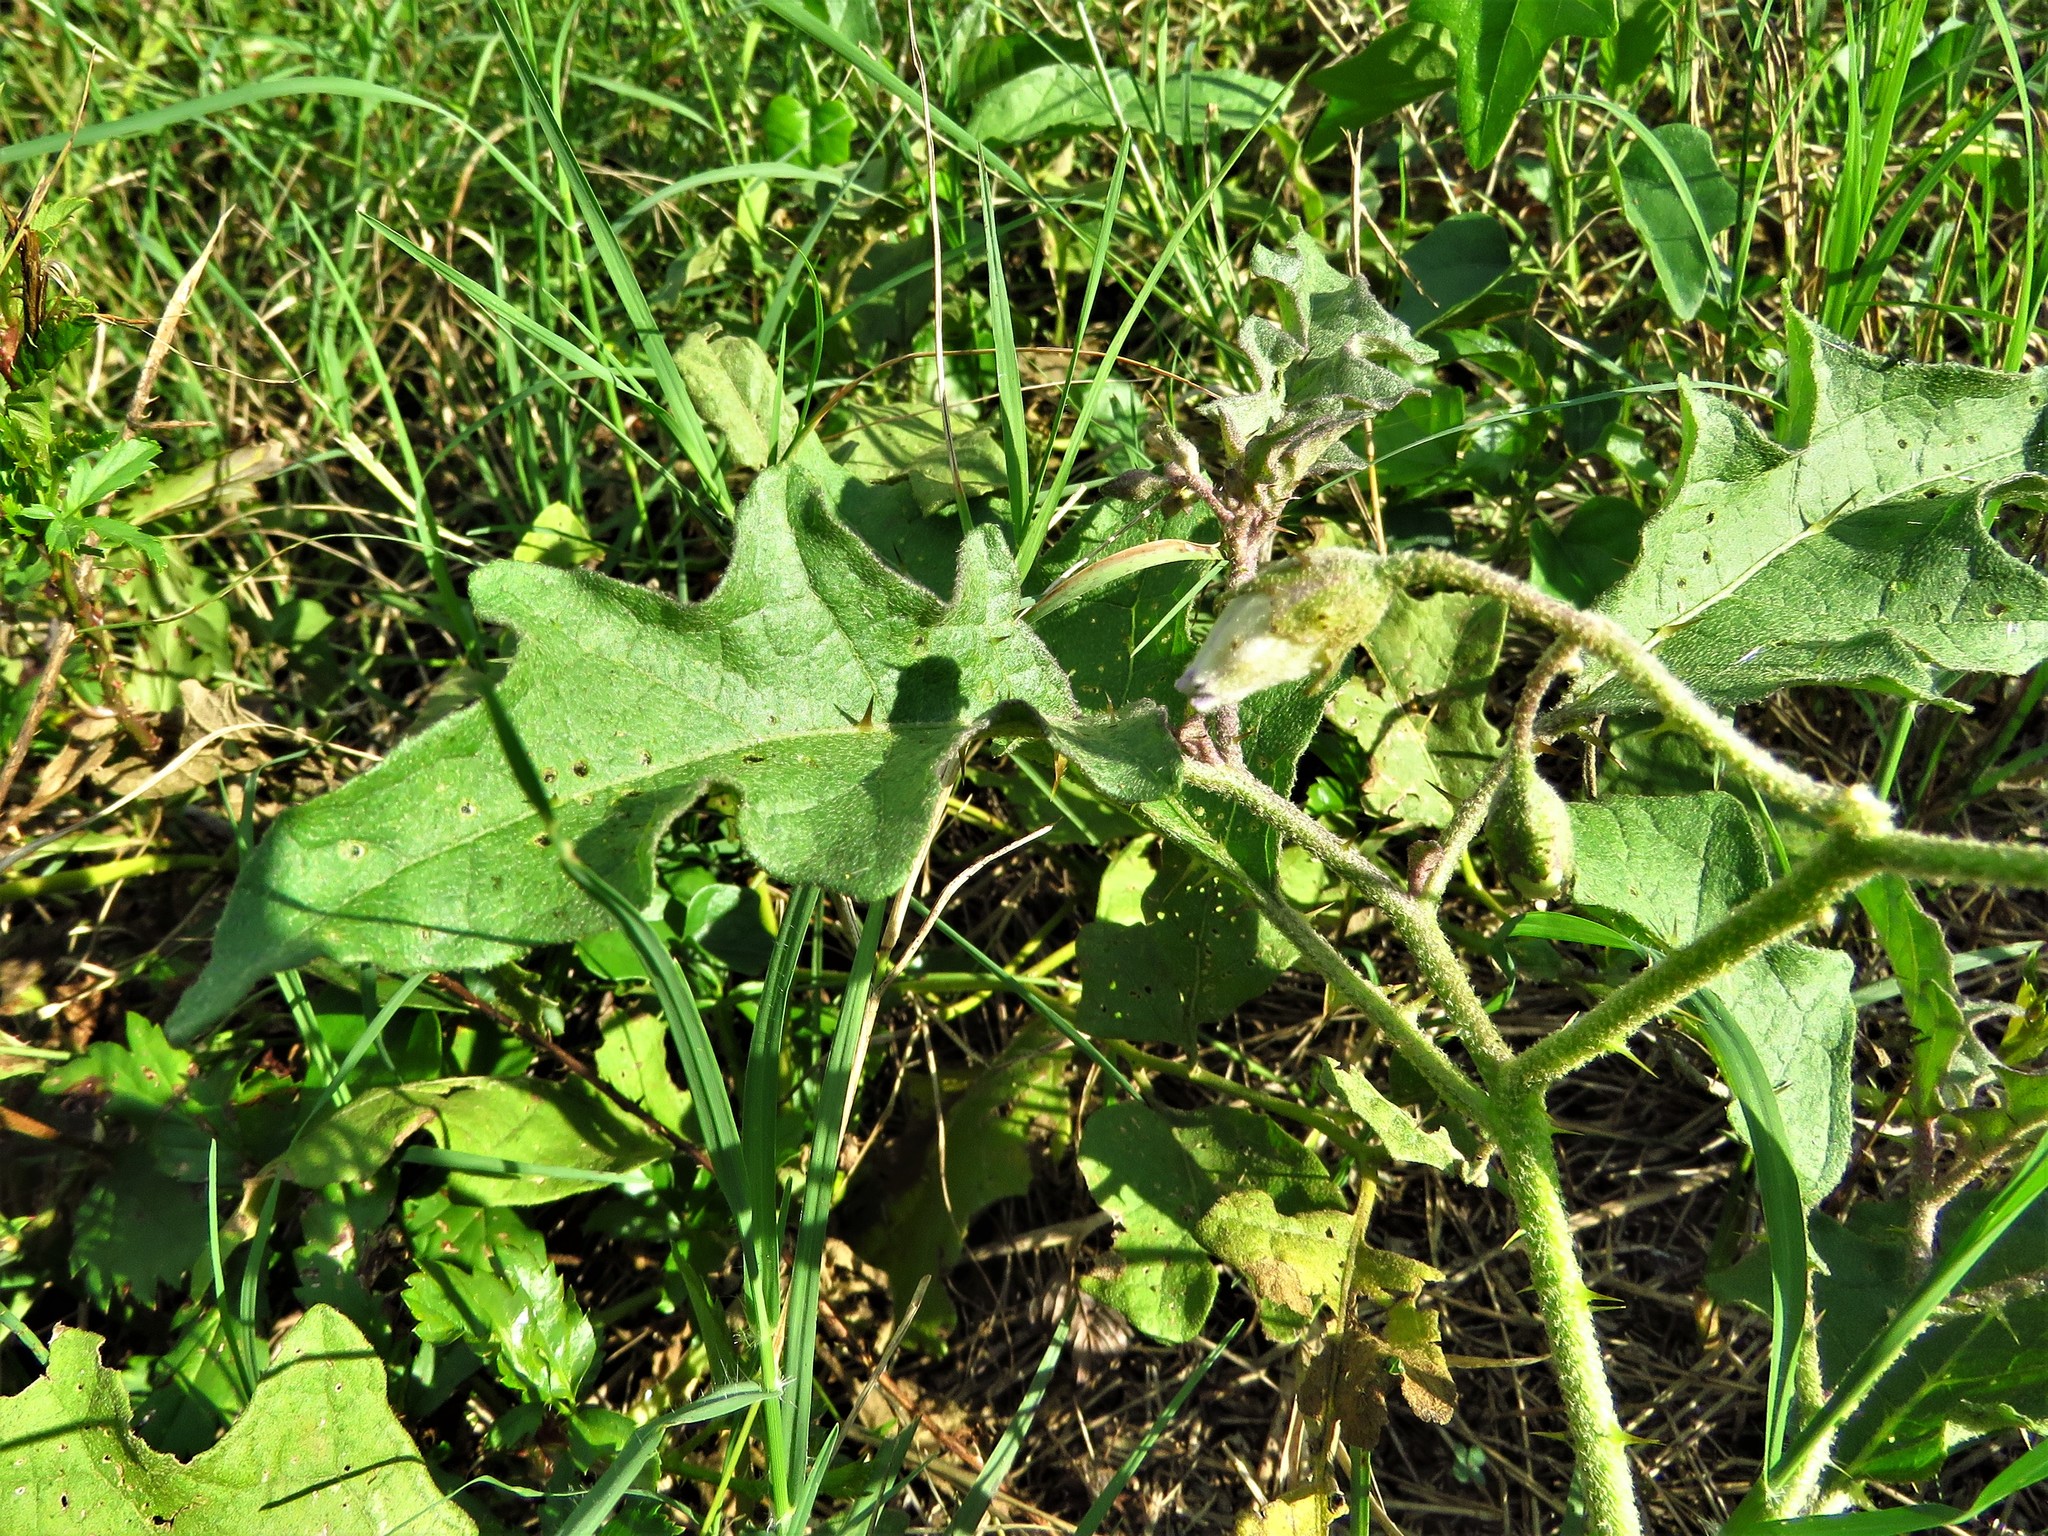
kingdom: Plantae
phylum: Tracheophyta
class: Magnoliopsida
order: Solanales
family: Solanaceae
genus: Solanum
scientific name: Solanum dimidiatum
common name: Carolina horse-nettle
